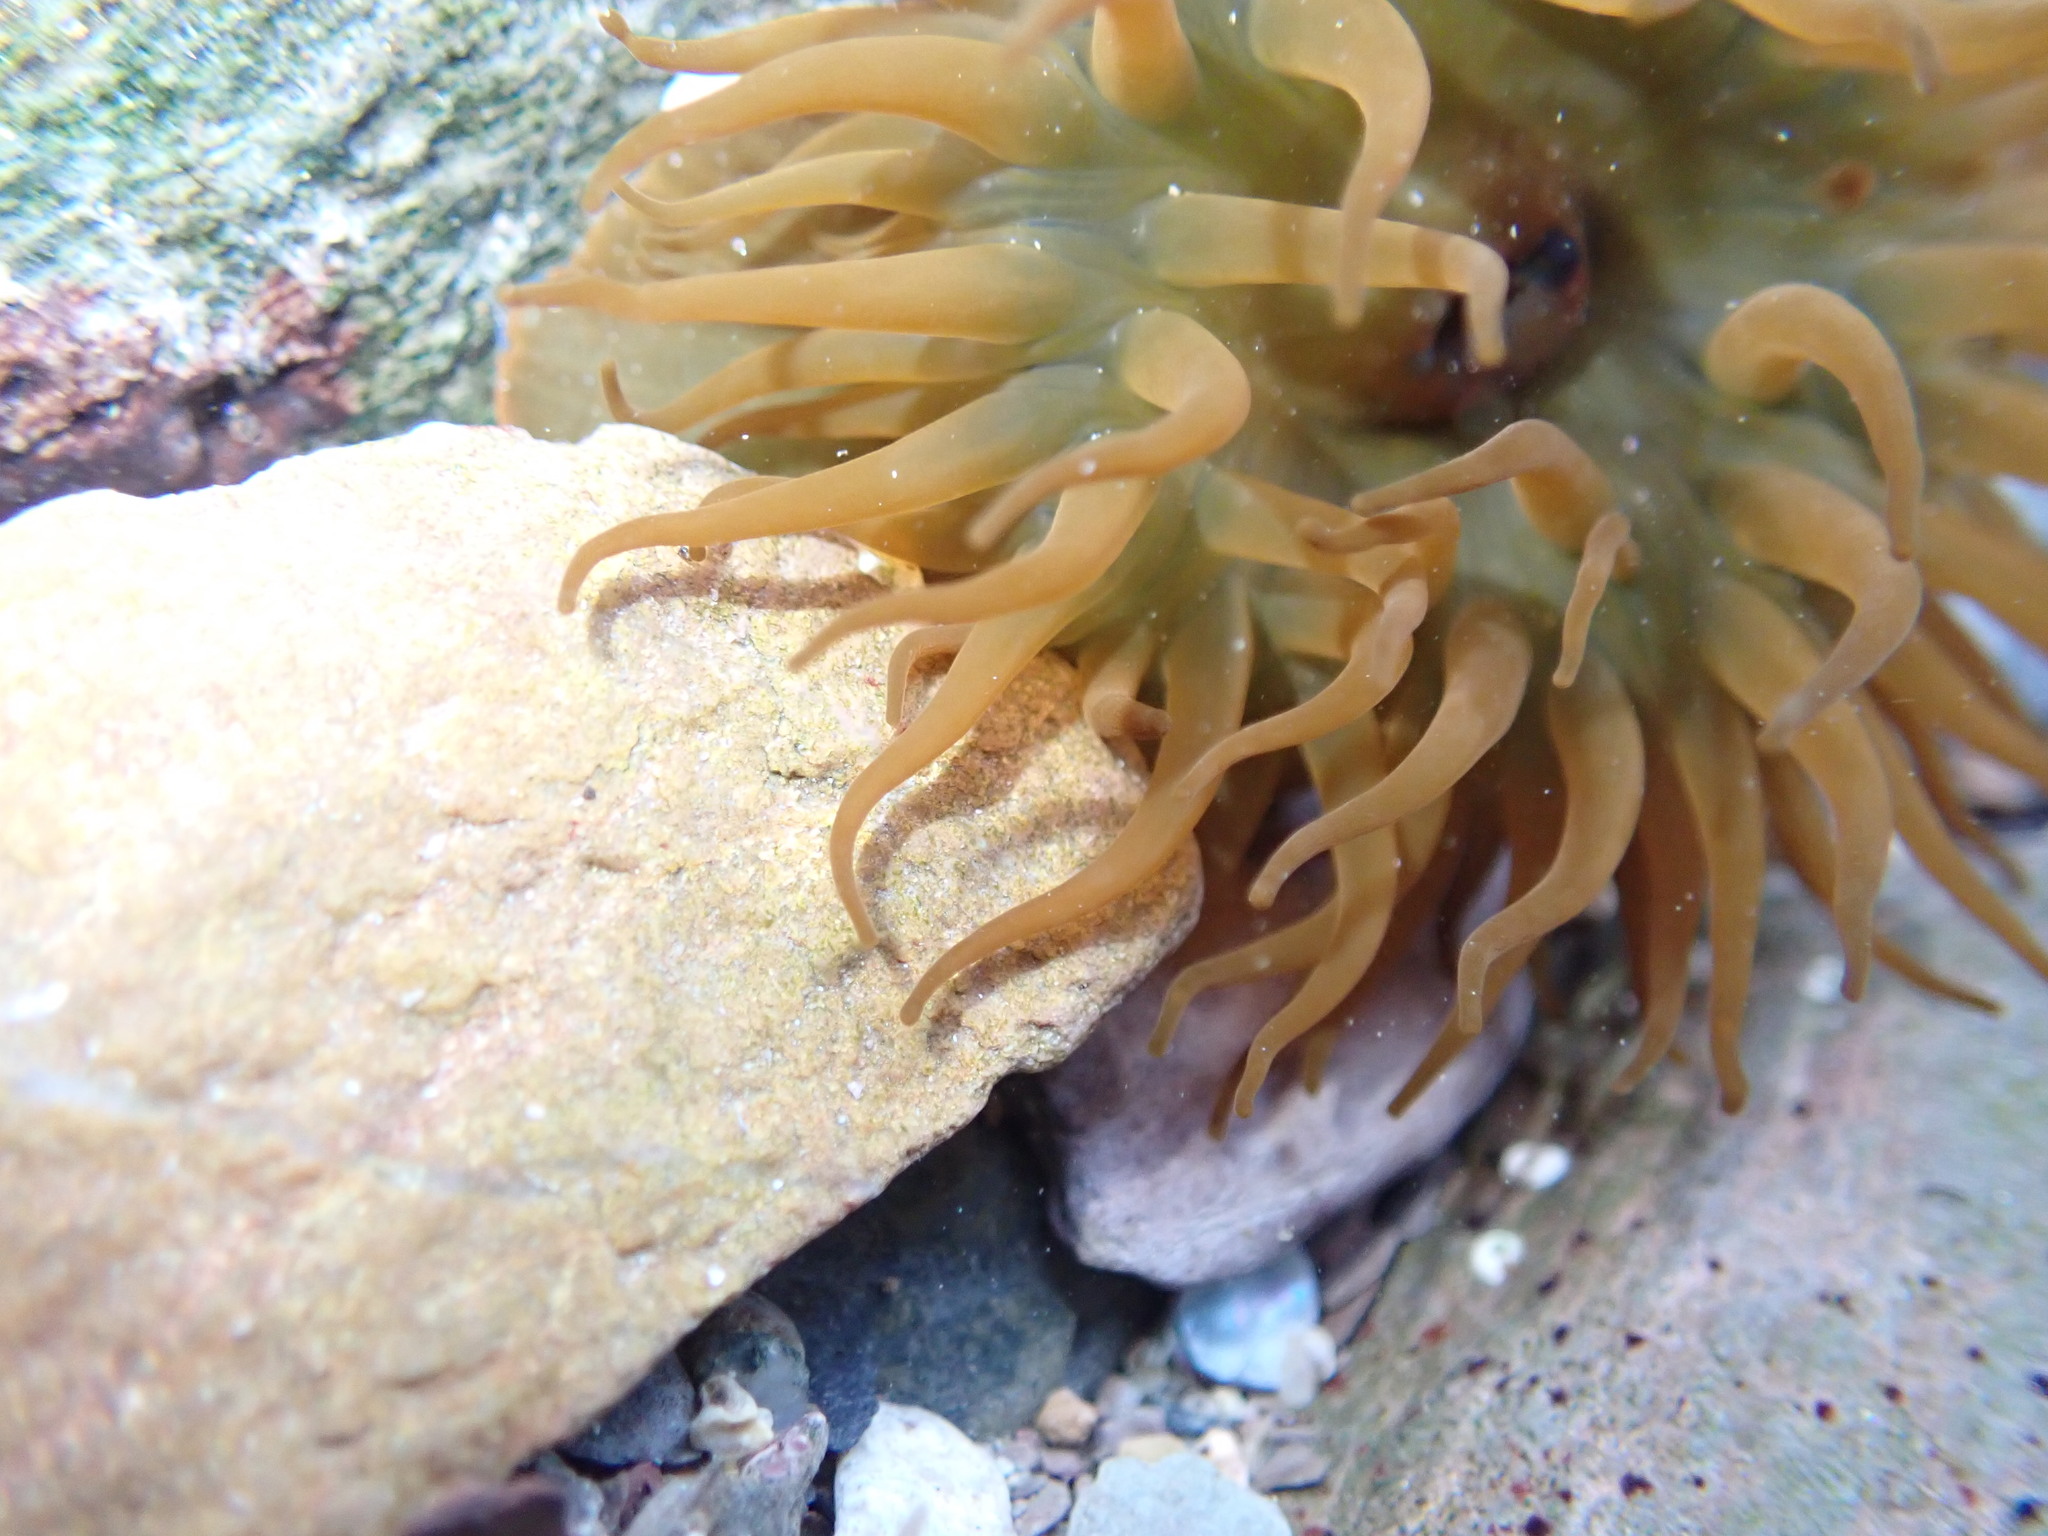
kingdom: Animalia
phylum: Cnidaria
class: Anthozoa
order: Actiniaria
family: Actiniidae
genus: Actinia
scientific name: Actinia equina
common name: Beadlet anemone
